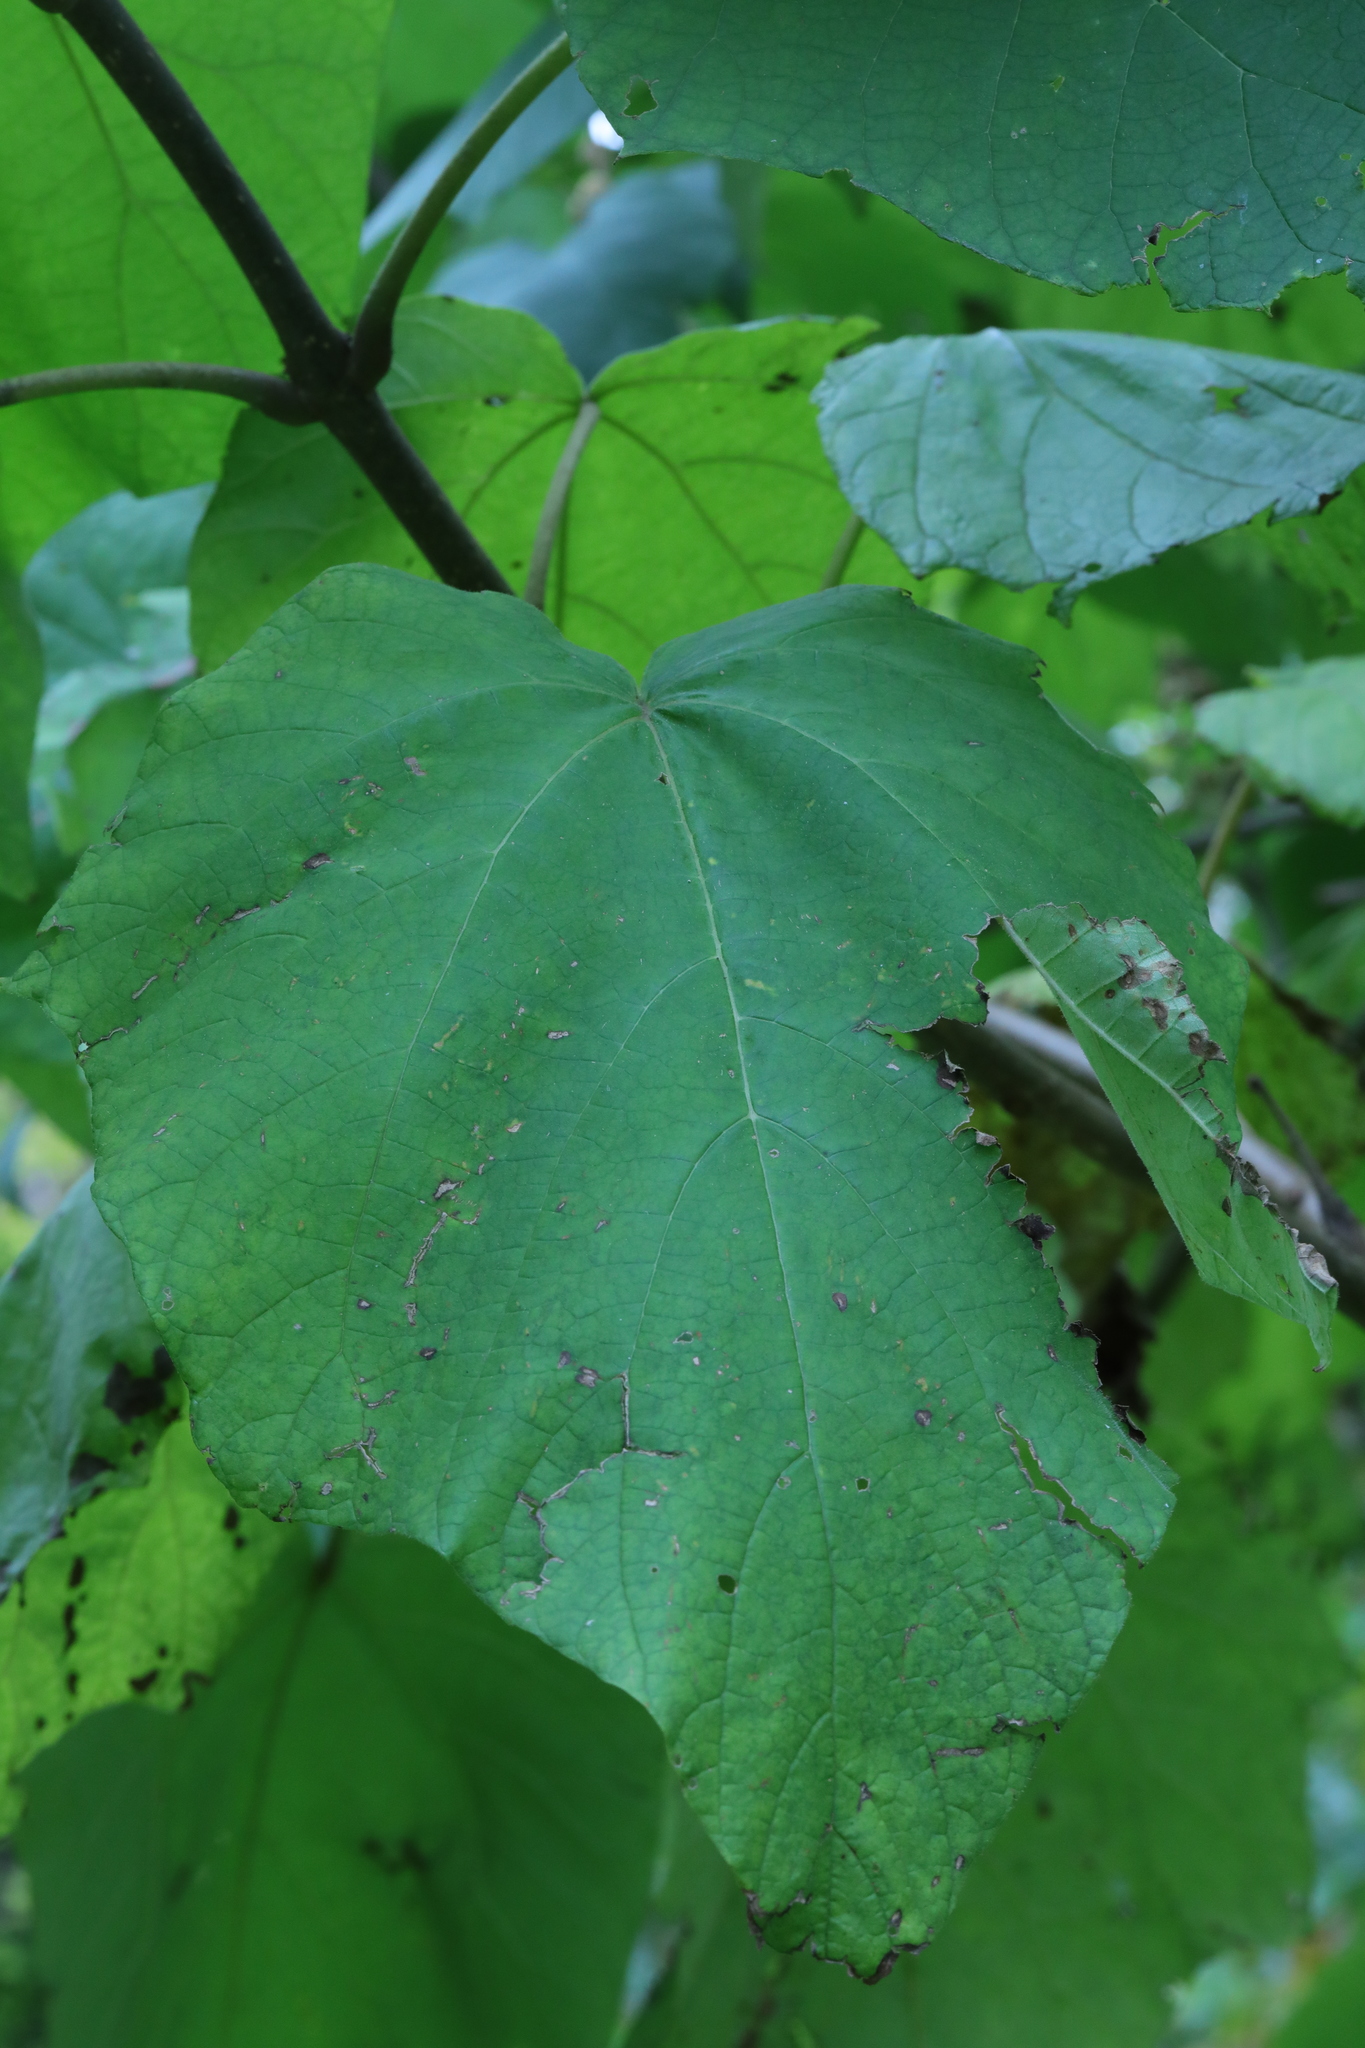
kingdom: Plantae
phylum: Tracheophyta
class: Magnoliopsida
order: Lamiales
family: Paulowniaceae
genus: Paulownia
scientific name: Paulownia tomentosa
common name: Foxglove-tree
